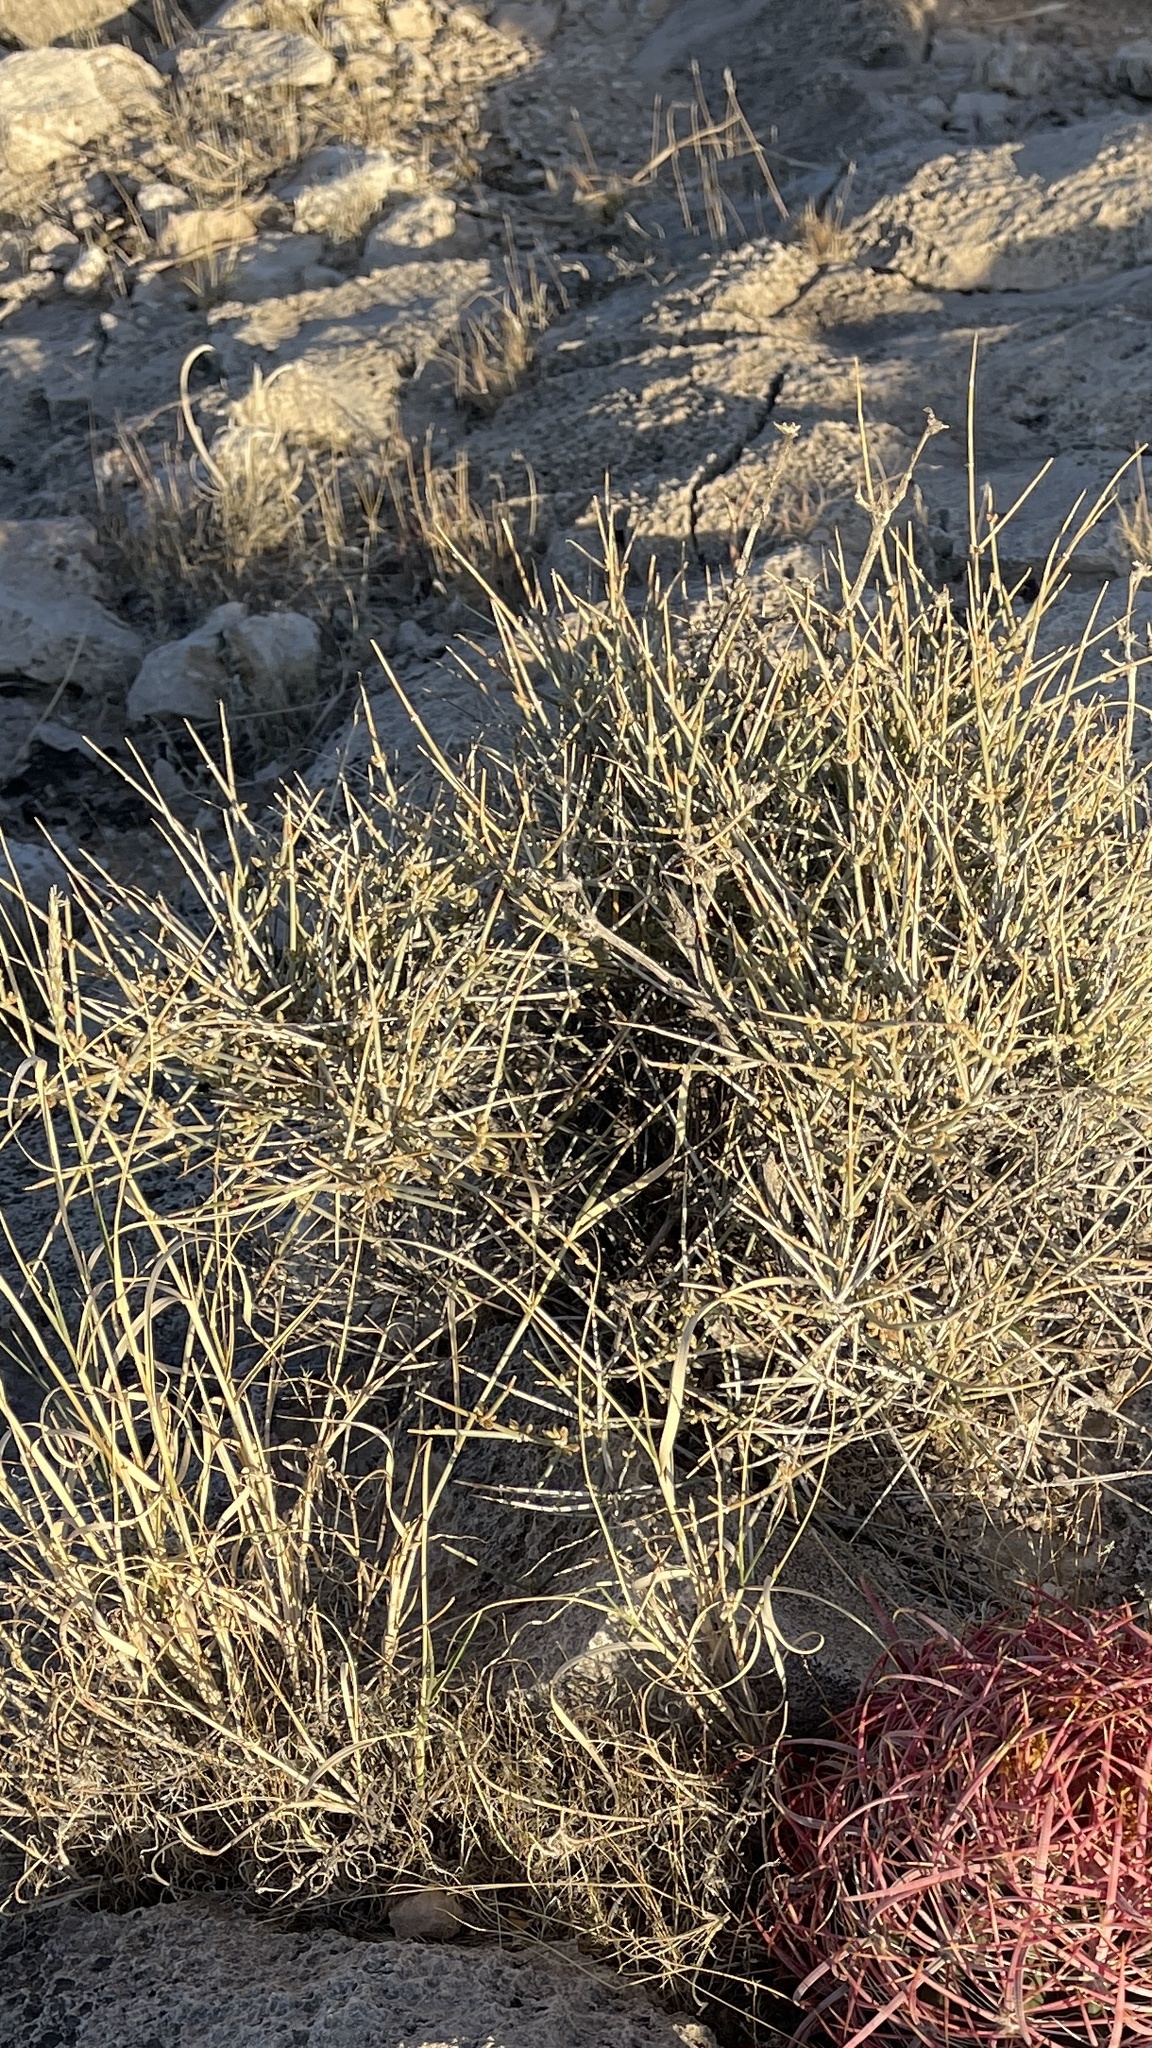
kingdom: Plantae
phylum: Tracheophyta
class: Gnetopsida
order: Ephedrales
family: Ephedraceae
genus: Ephedra
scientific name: Ephedra nevadensis
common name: Gray ephedra
